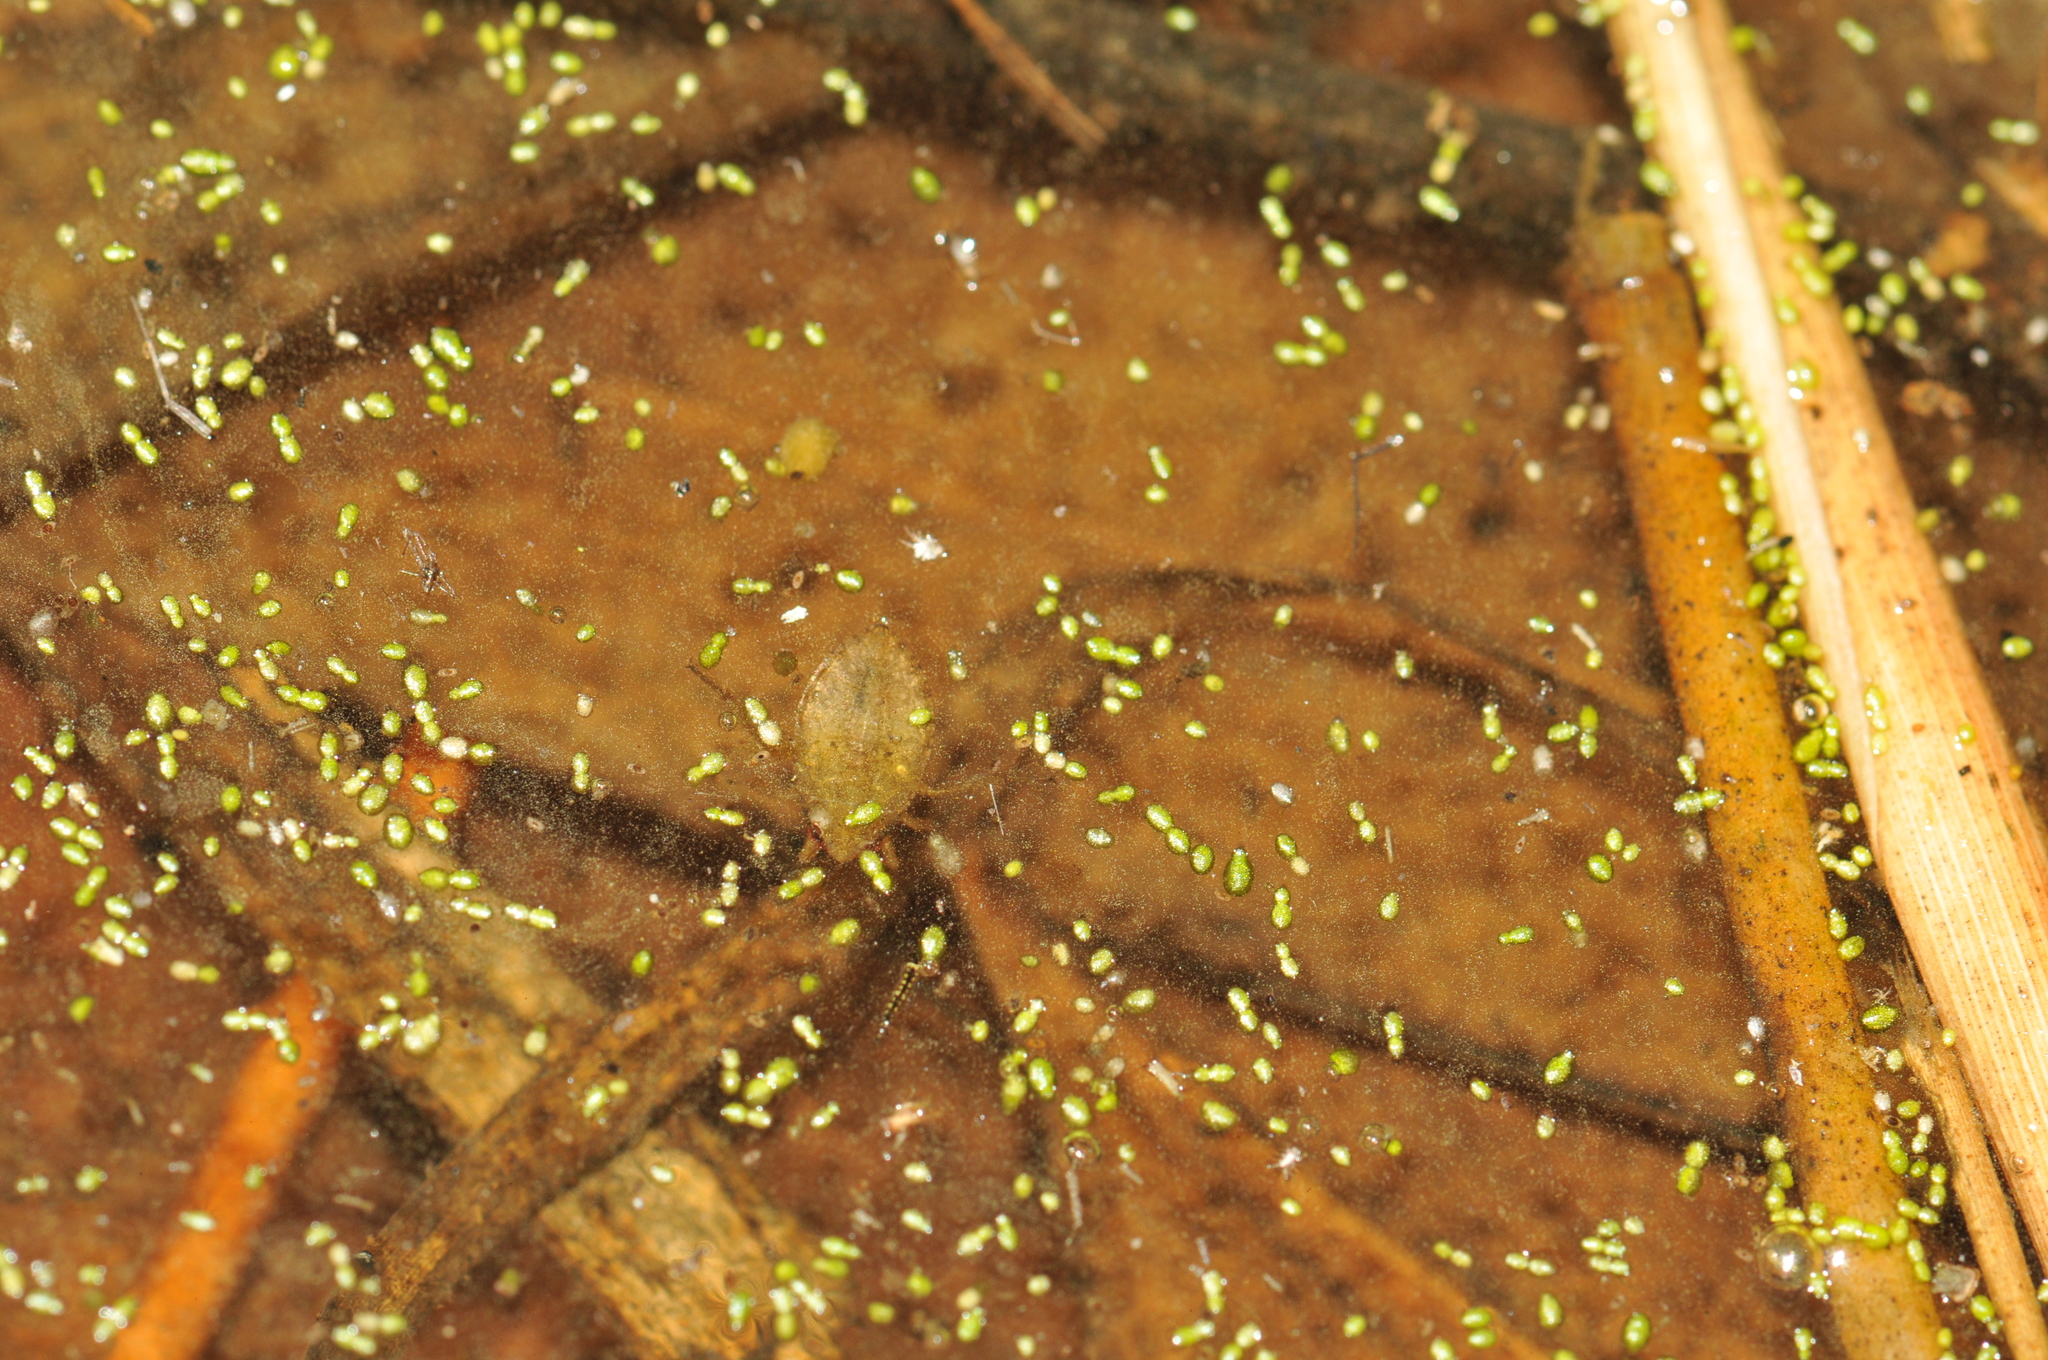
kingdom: Animalia
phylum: Arthropoda
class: Insecta
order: Hemiptera
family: Belostomatidae
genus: Diplonychus
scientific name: Diplonychus
